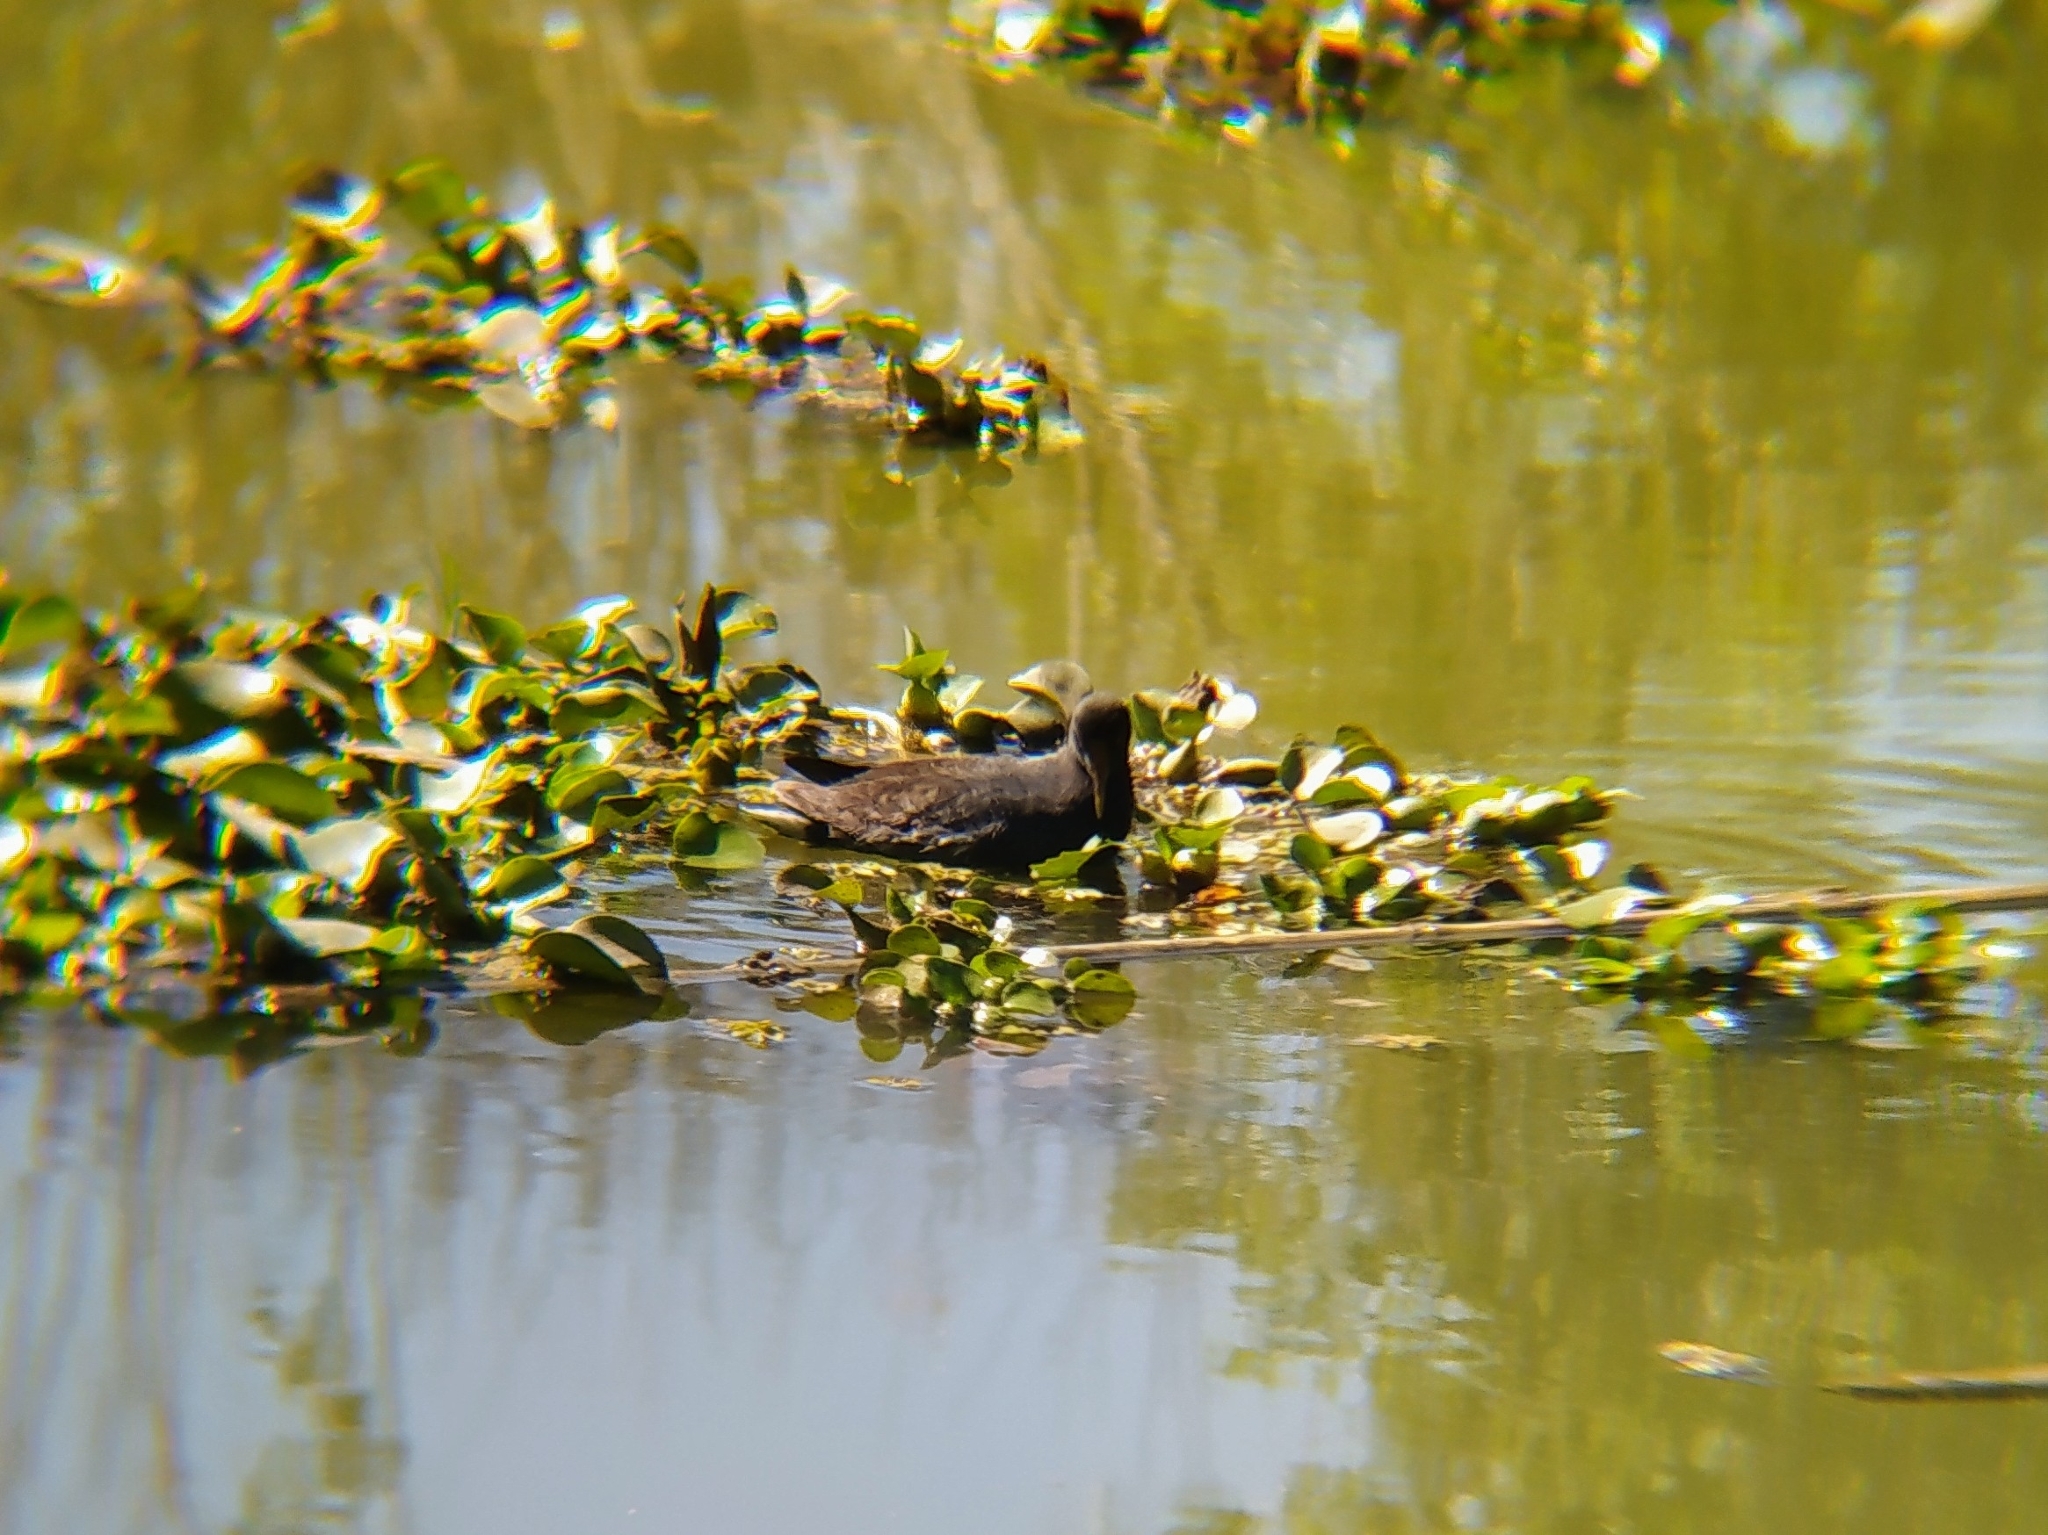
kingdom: Animalia
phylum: Chordata
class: Aves
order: Gruiformes
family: Rallidae
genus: Gallinula
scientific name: Gallinula chloropus
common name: Common moorhen
